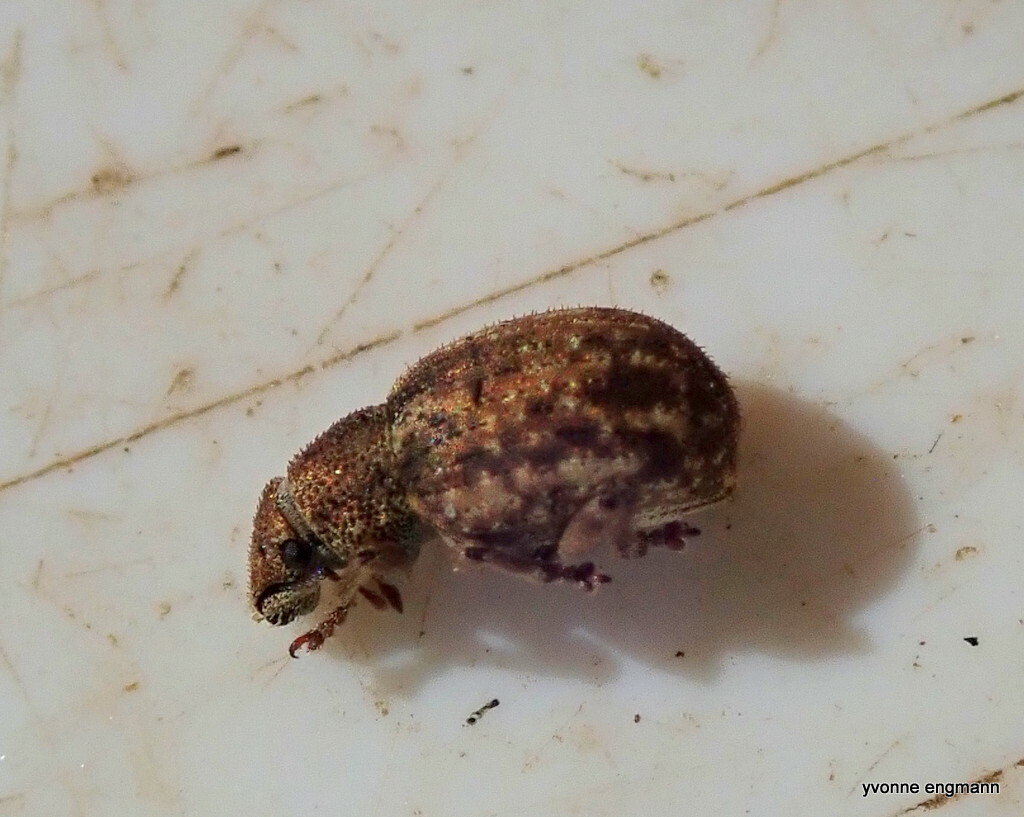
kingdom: Animalia
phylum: Arthropoda
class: Insecta
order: Coleoptera
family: Curculionidae
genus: Strophosoma
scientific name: Strophosoma capitatum
